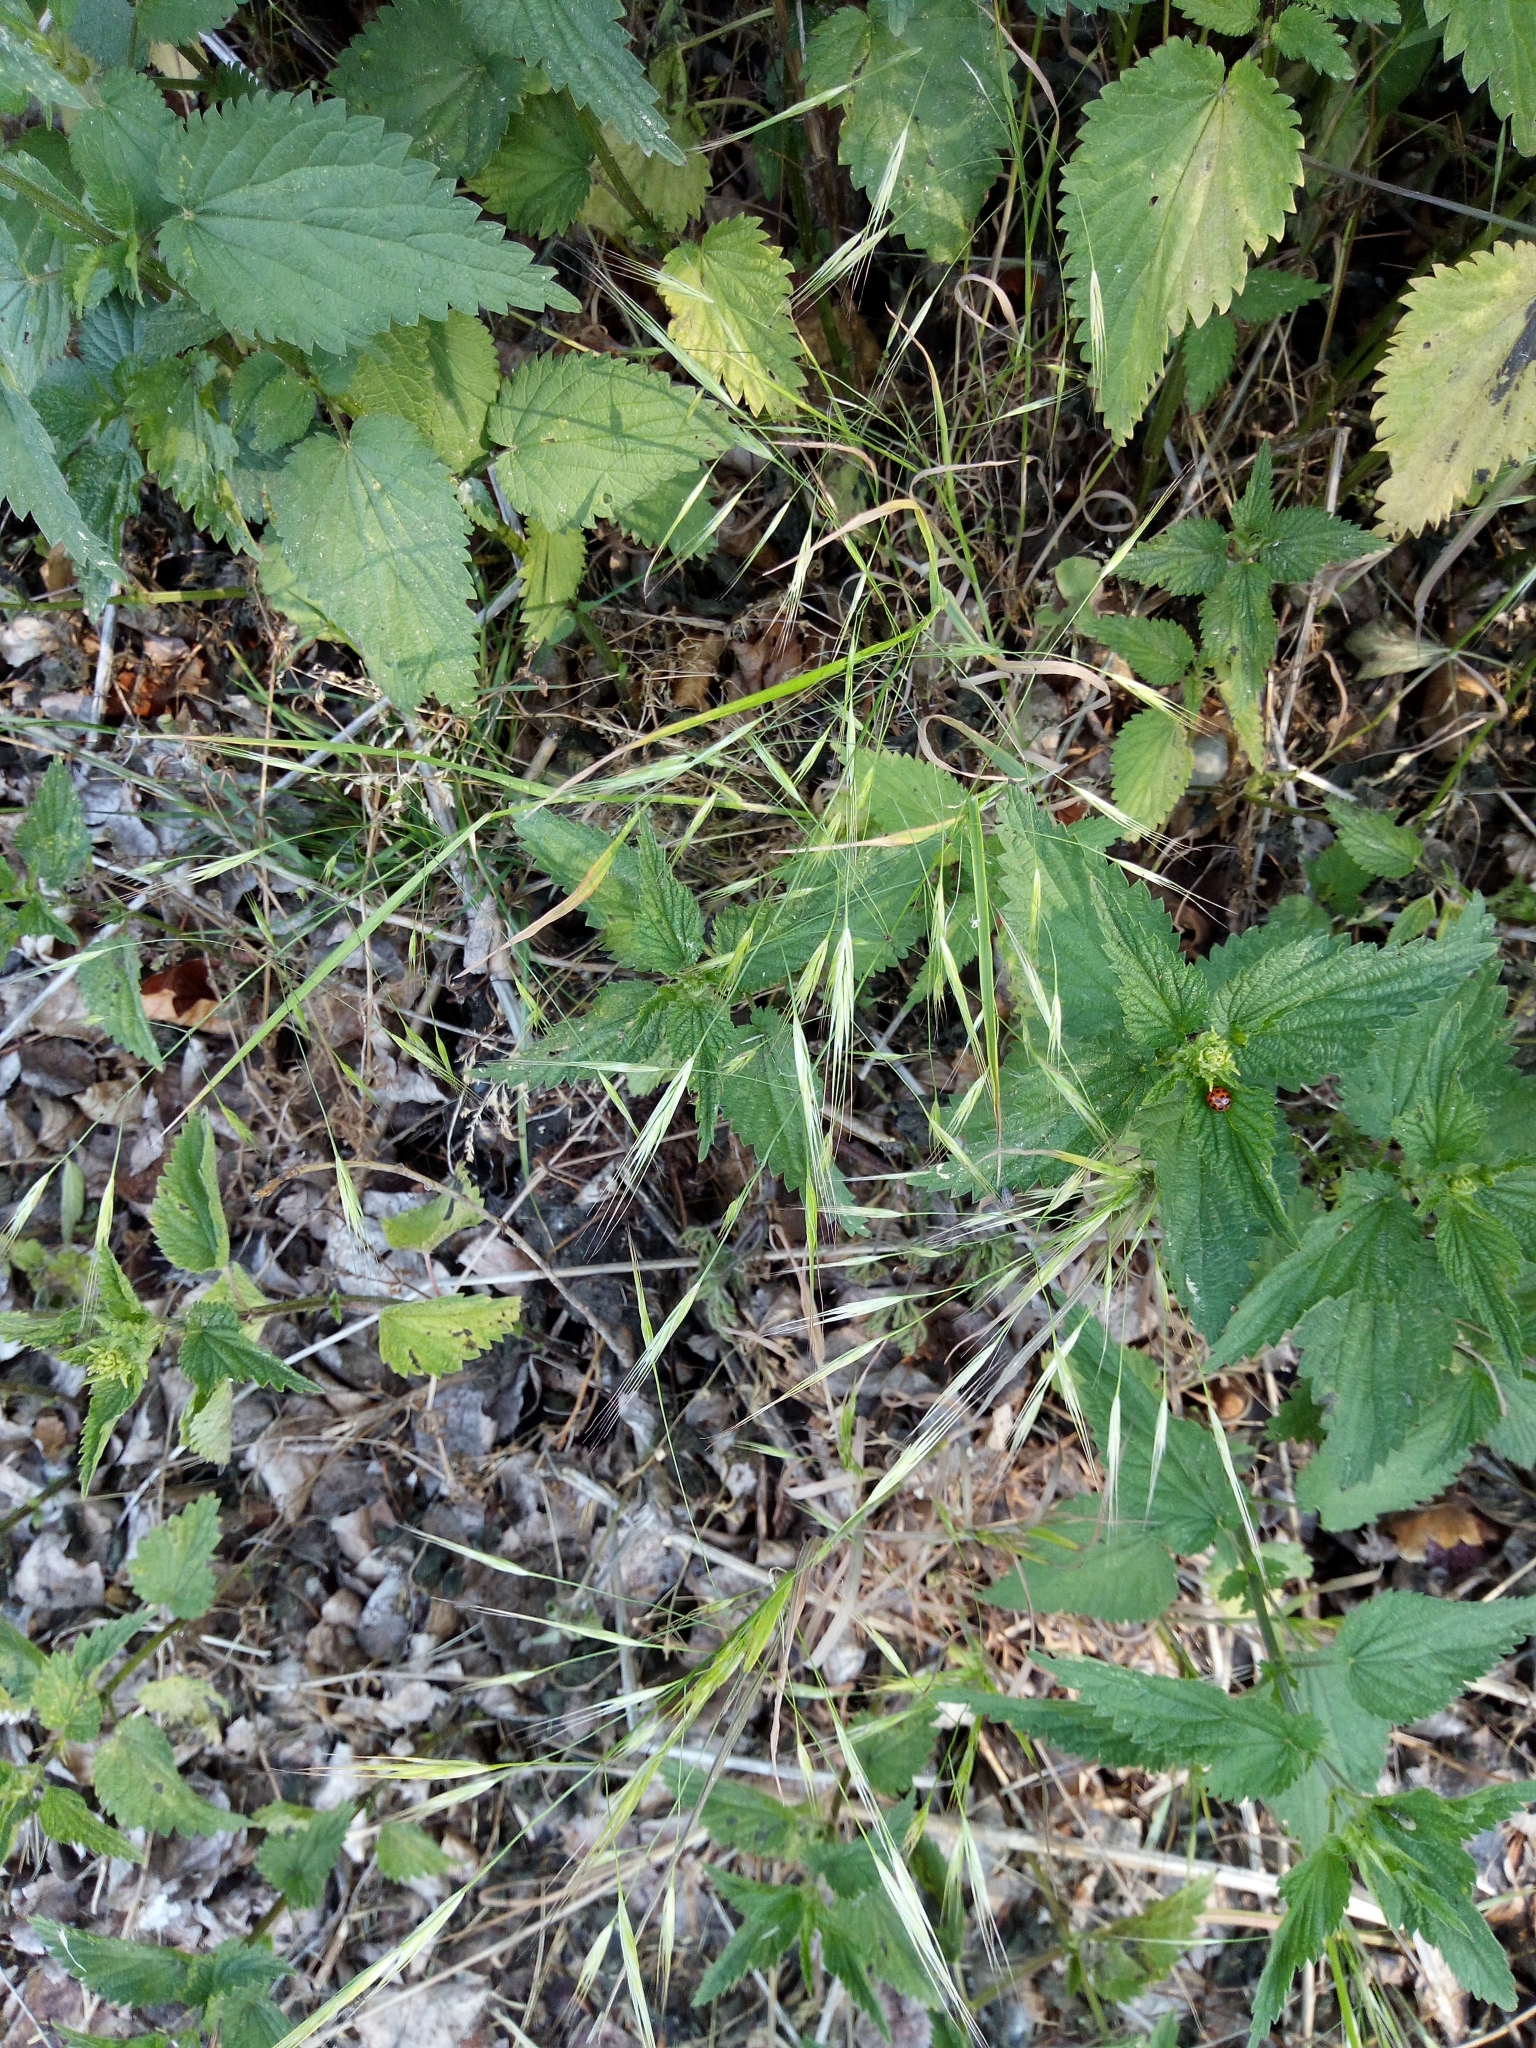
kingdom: Plantae
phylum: Tracheophyta
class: Liliopsida
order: Poales
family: Poaceae
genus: Bromus
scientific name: Bromus sterilis
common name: Poverty brome
